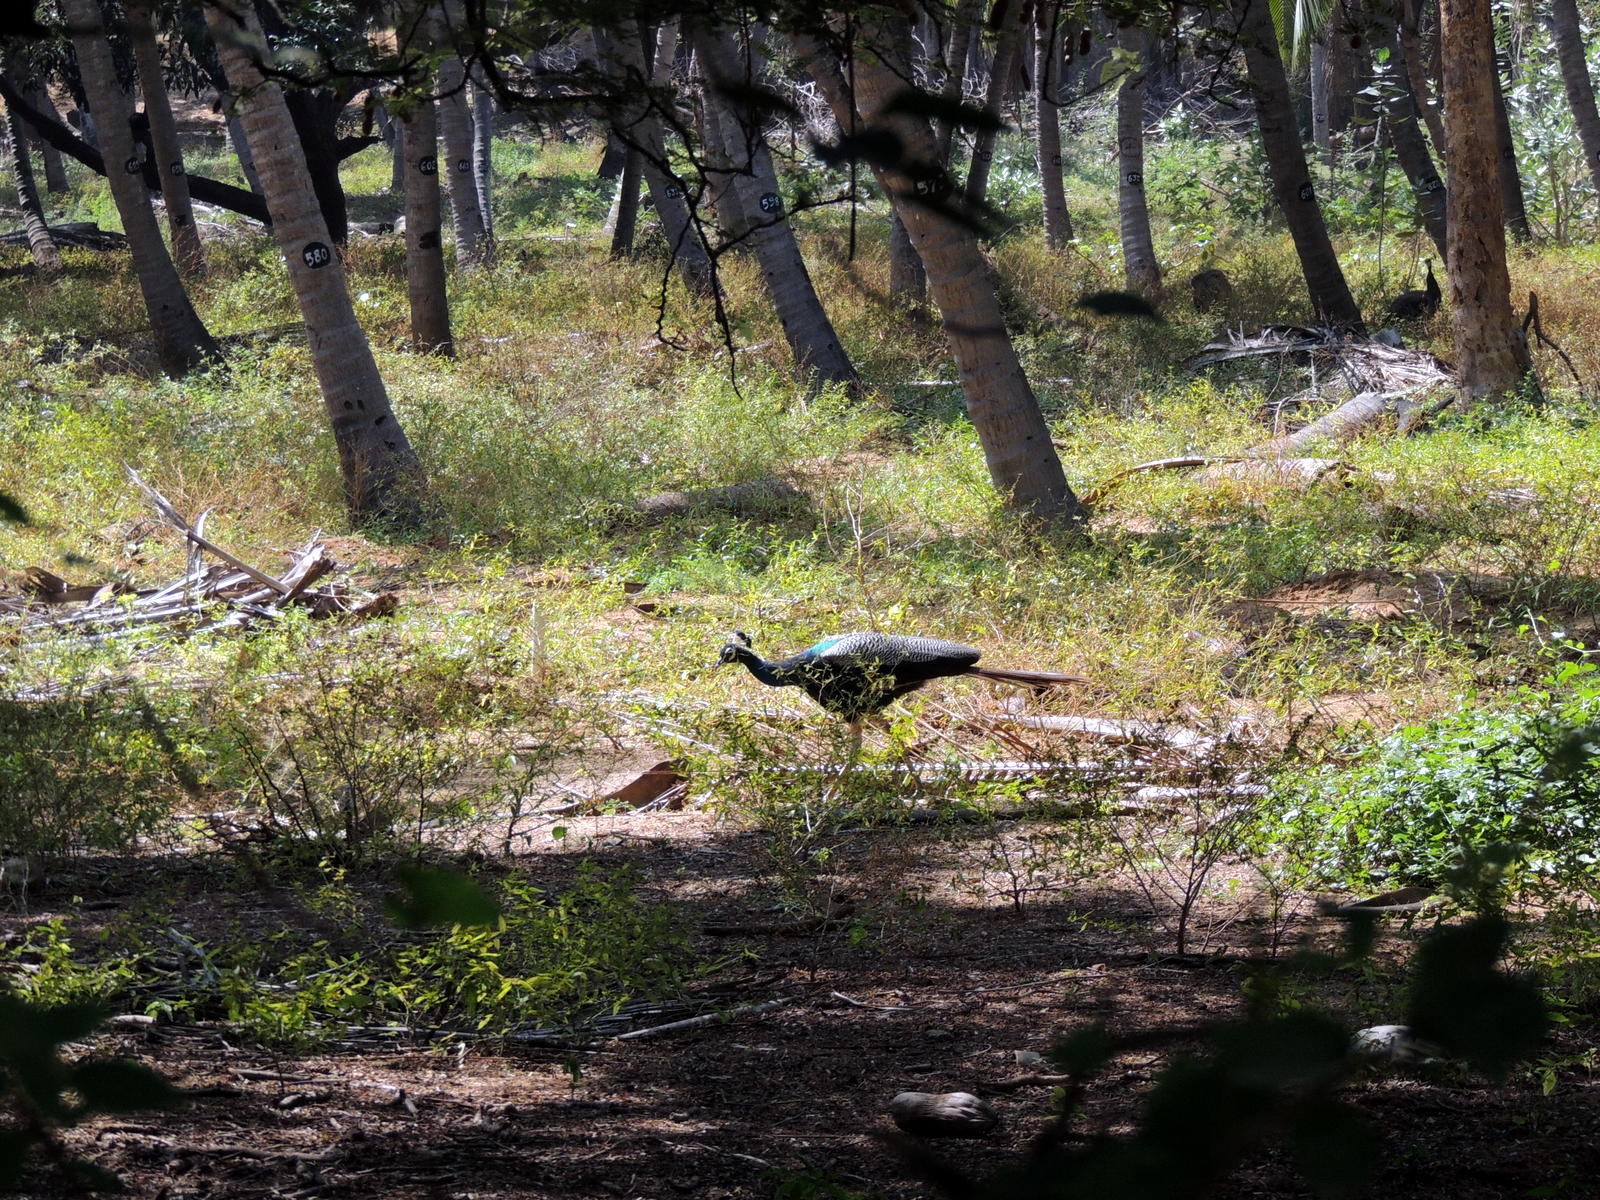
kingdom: Animalia
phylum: Chordata
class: Aves
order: Galliformes
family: Phasianidae
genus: Pavo
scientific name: Pavo cristatus
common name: Indian peafowl
